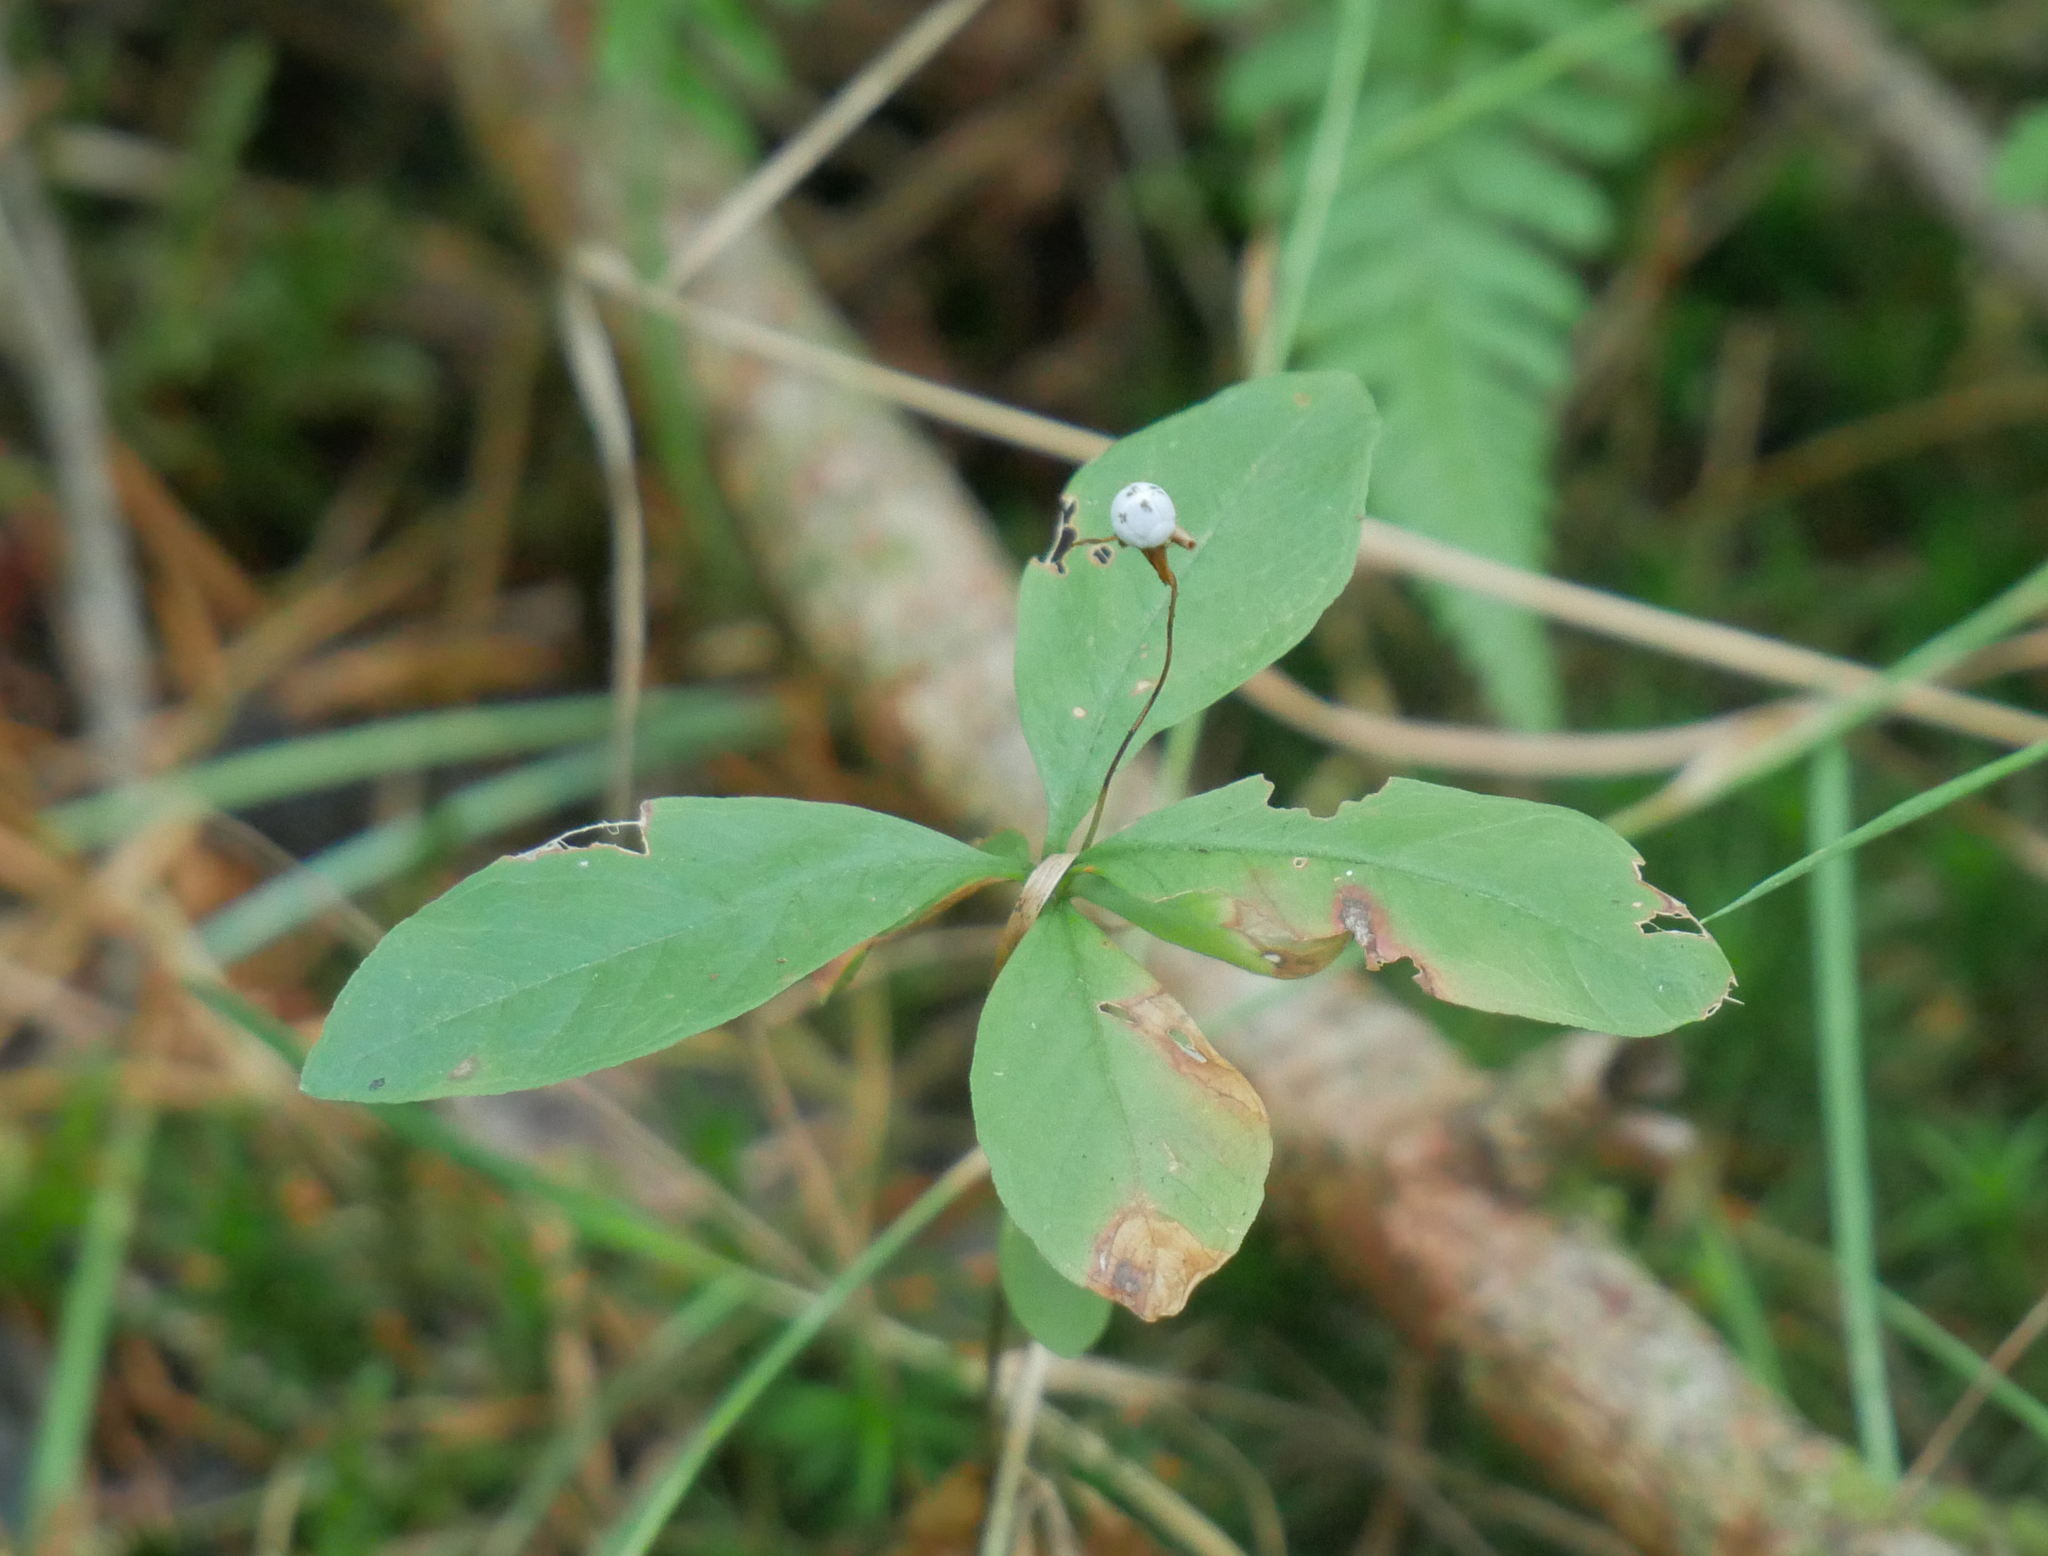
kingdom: Plantae
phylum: Tracheophyta
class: Magnoliopsida
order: Ericales
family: Primulaceae
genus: Lysimachia
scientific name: Lysimachia europaea
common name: Arctic starflower
